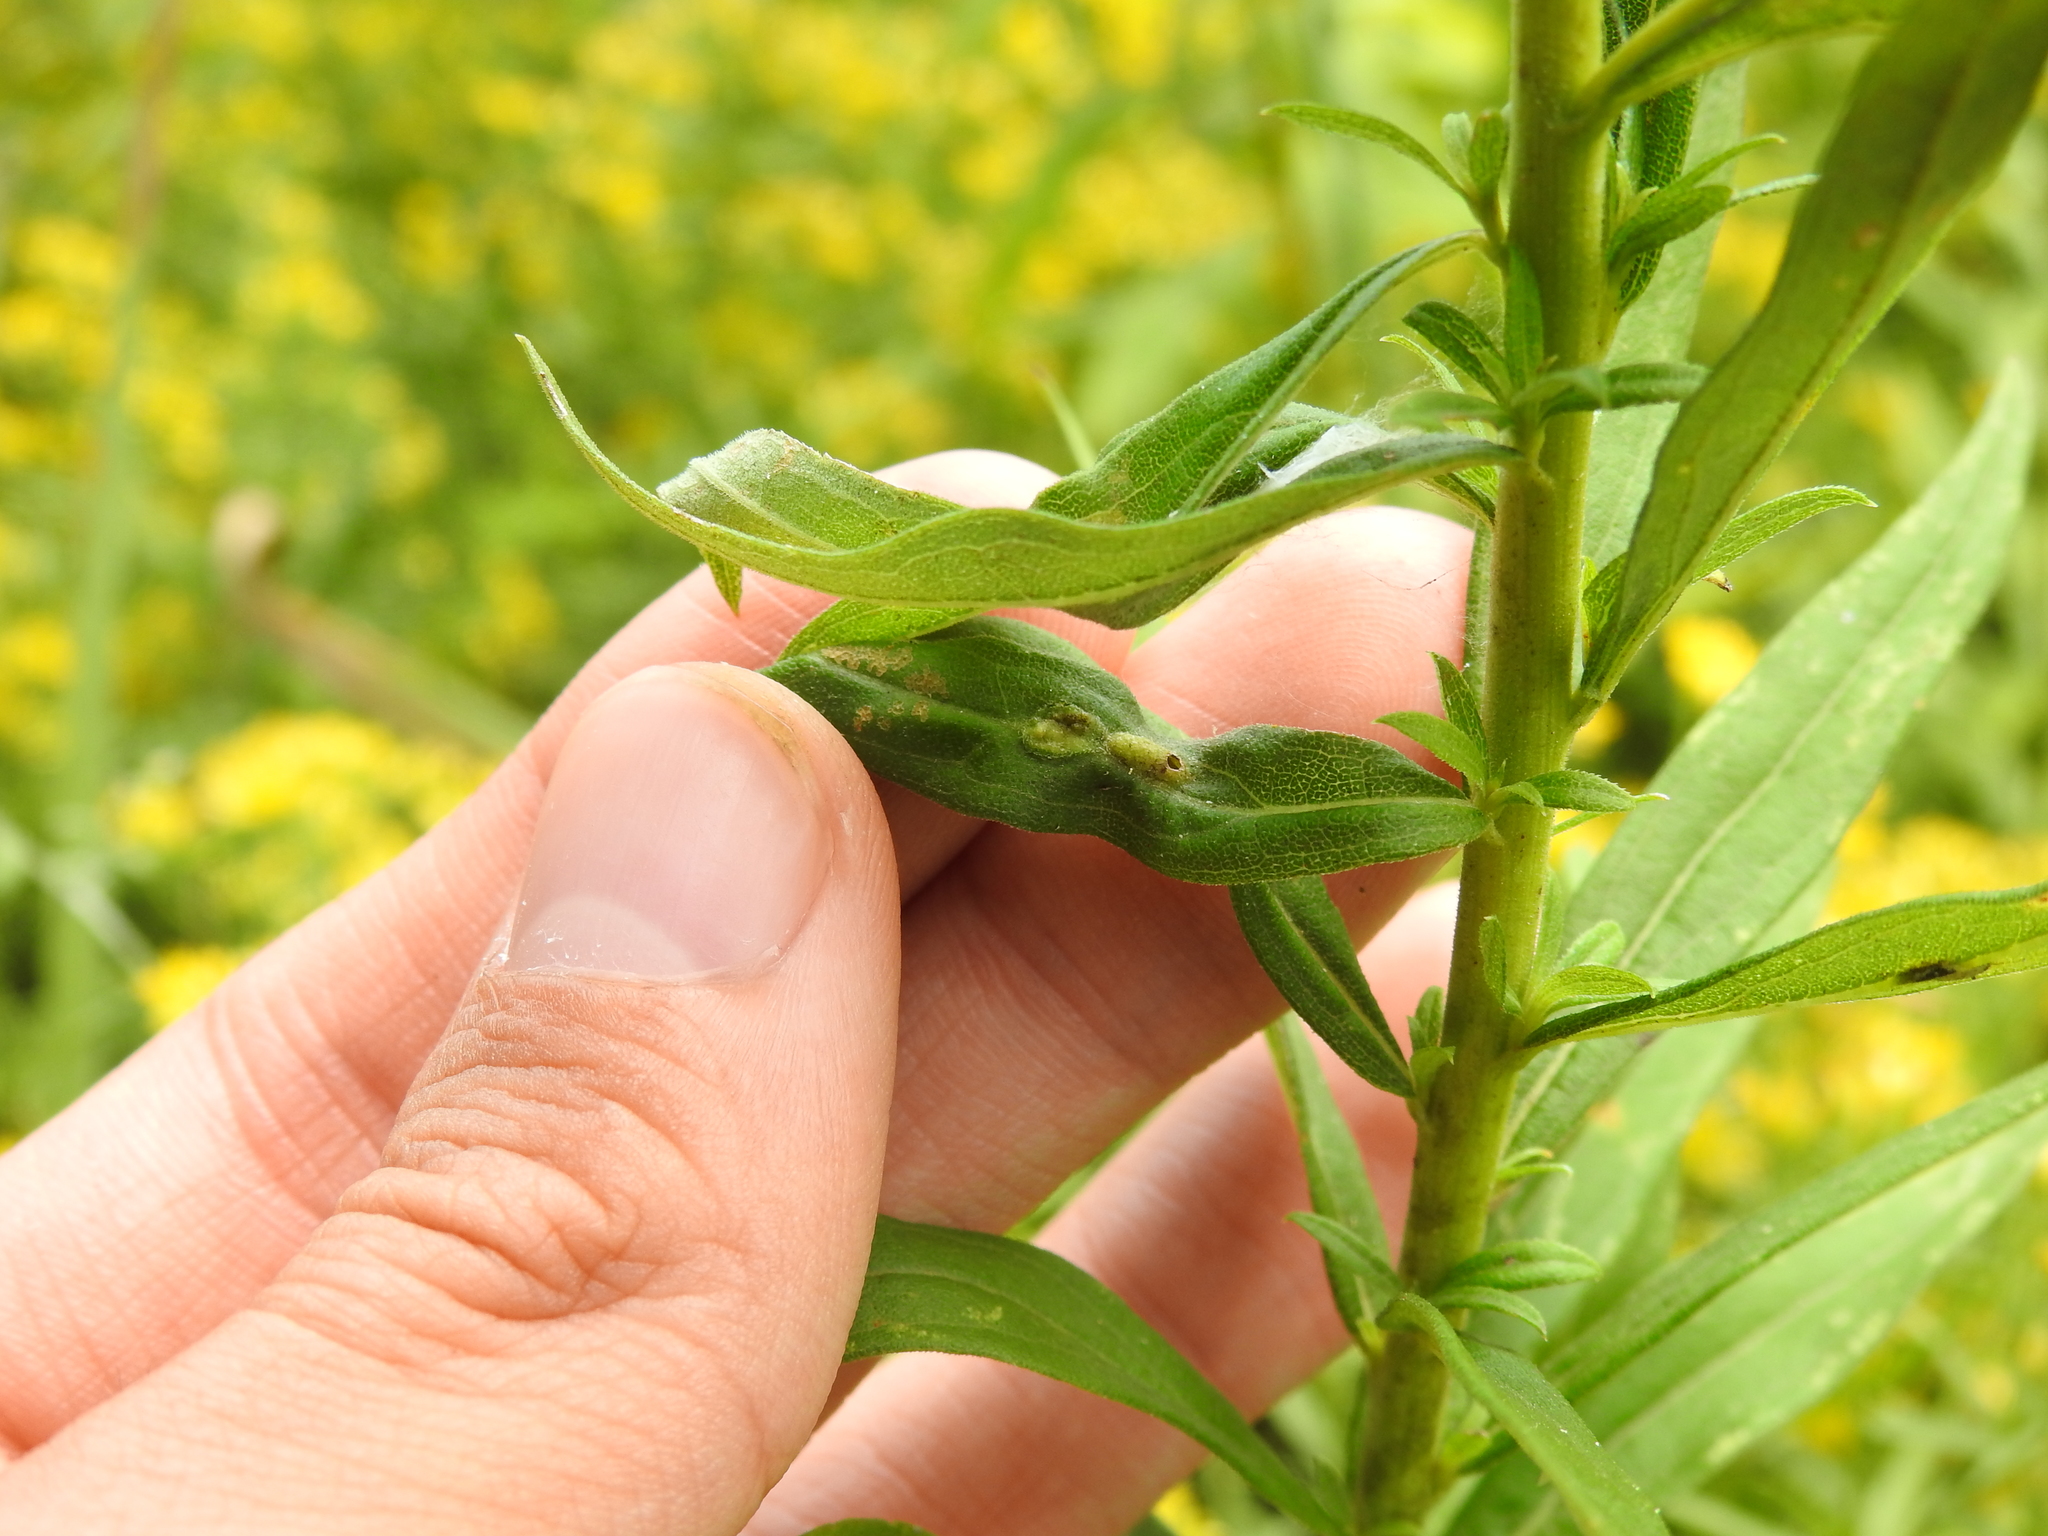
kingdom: Animalia
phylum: Arthropoda
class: Insecta
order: Diptera
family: Cecidomyiidae
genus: Asphondylia
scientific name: Asphondylia solidaginis
